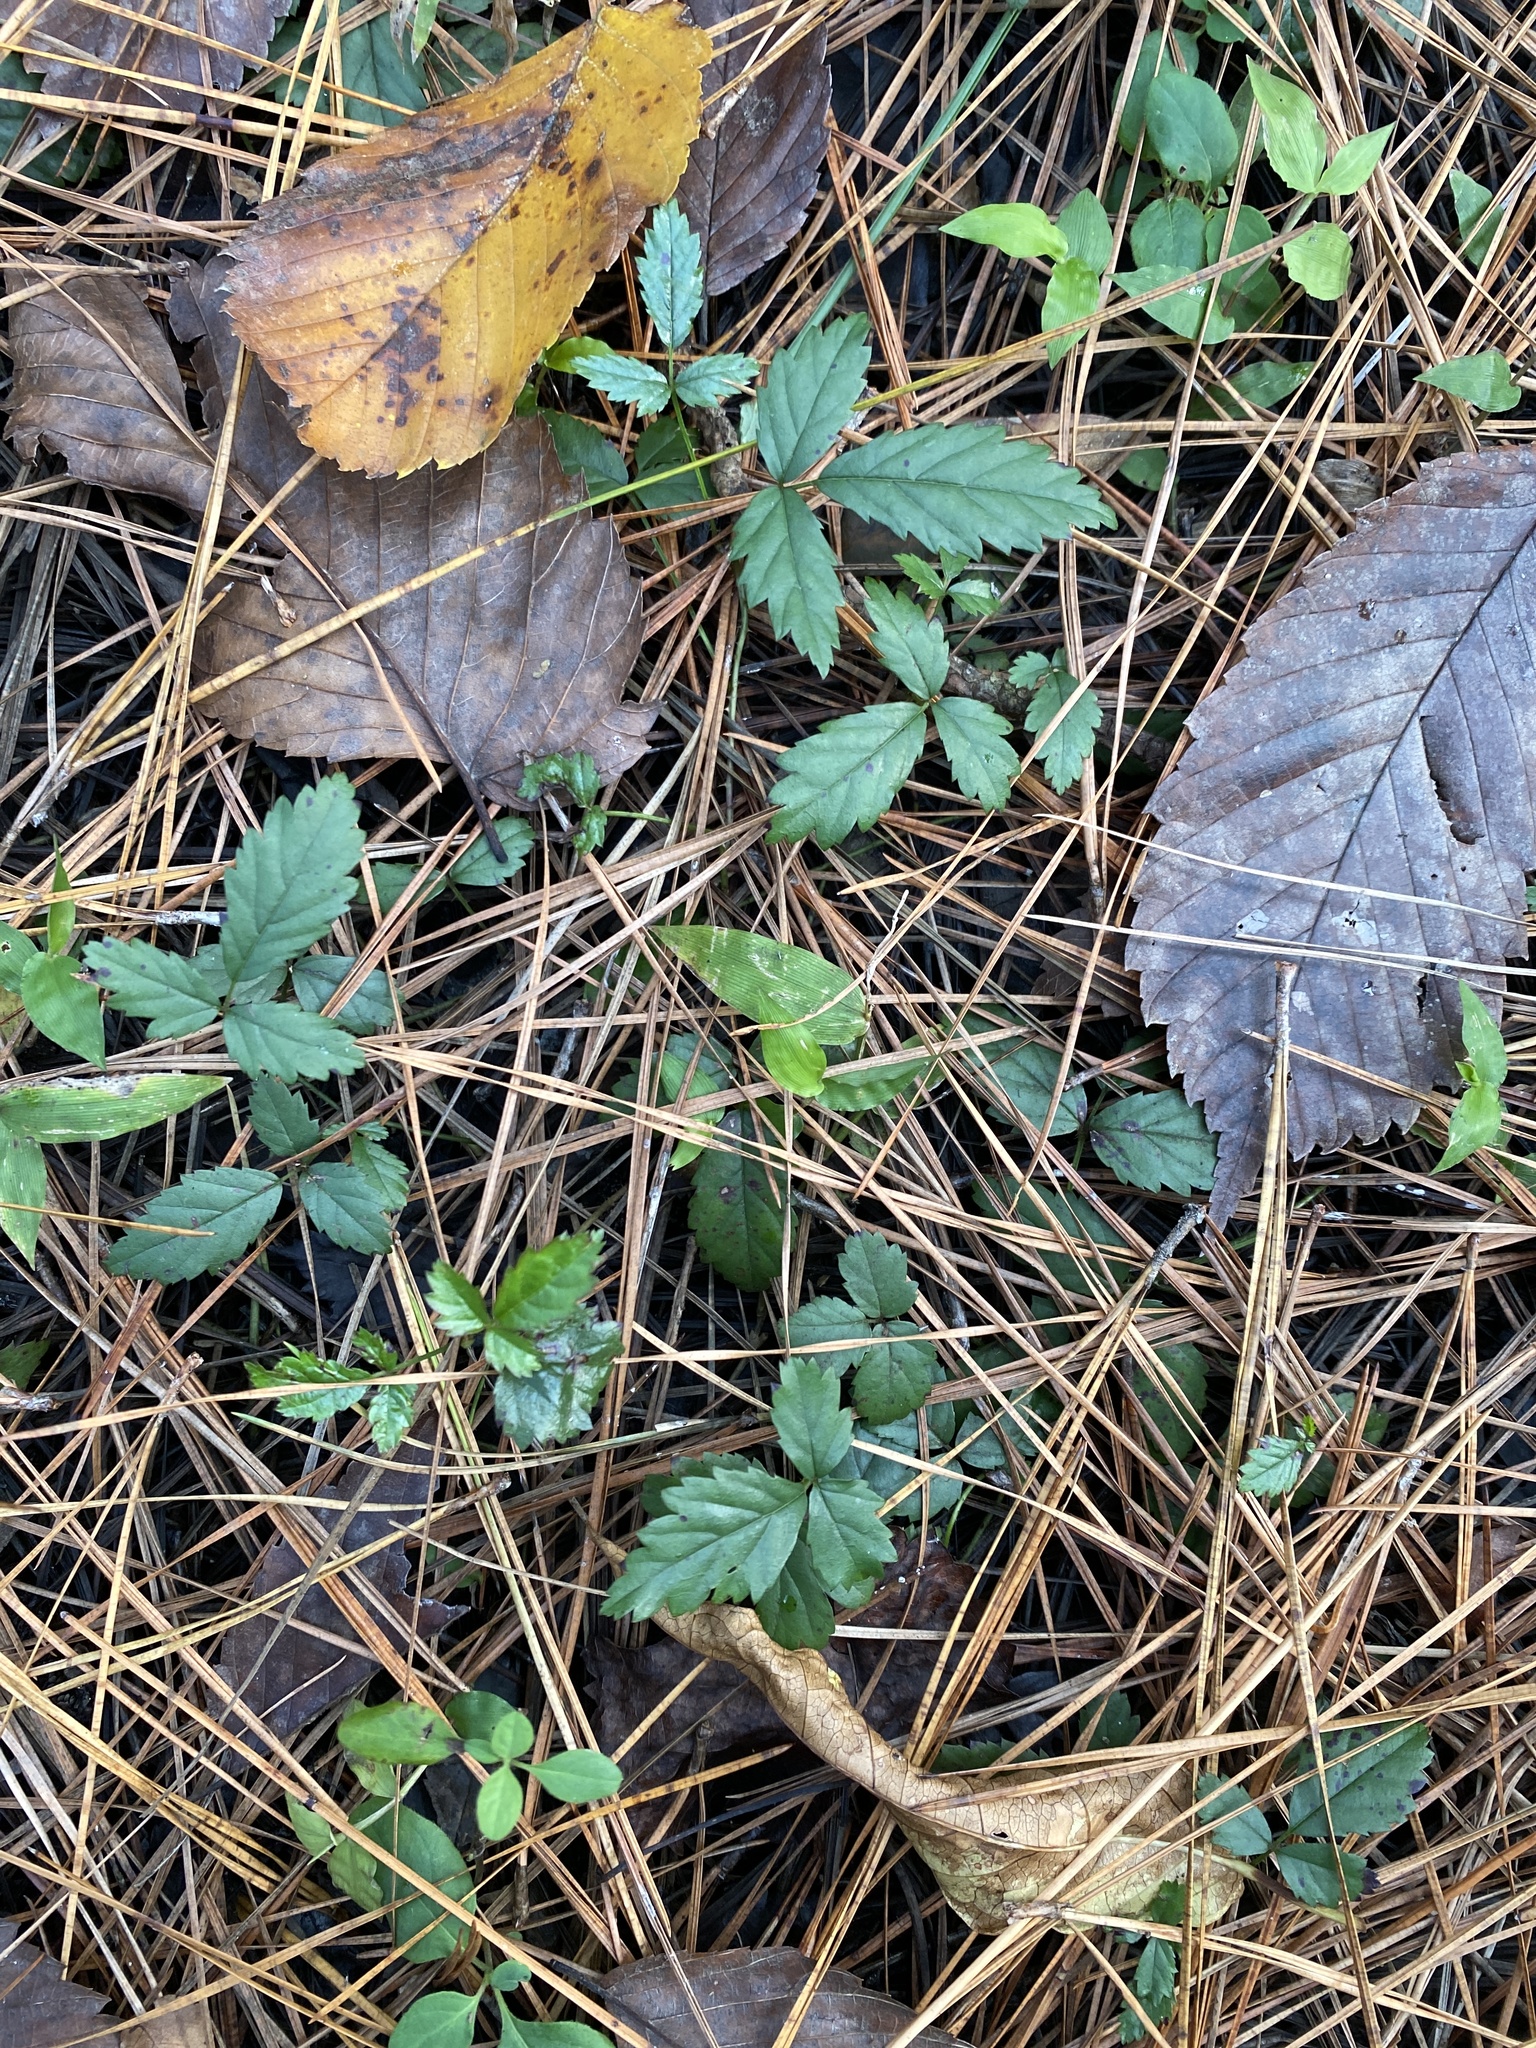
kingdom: Plantae
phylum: Tracheophyta
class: Magnoliopsida
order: Rosales
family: Rosaceae
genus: Rubus
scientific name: Rubus trivialis
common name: Southern dewberry
